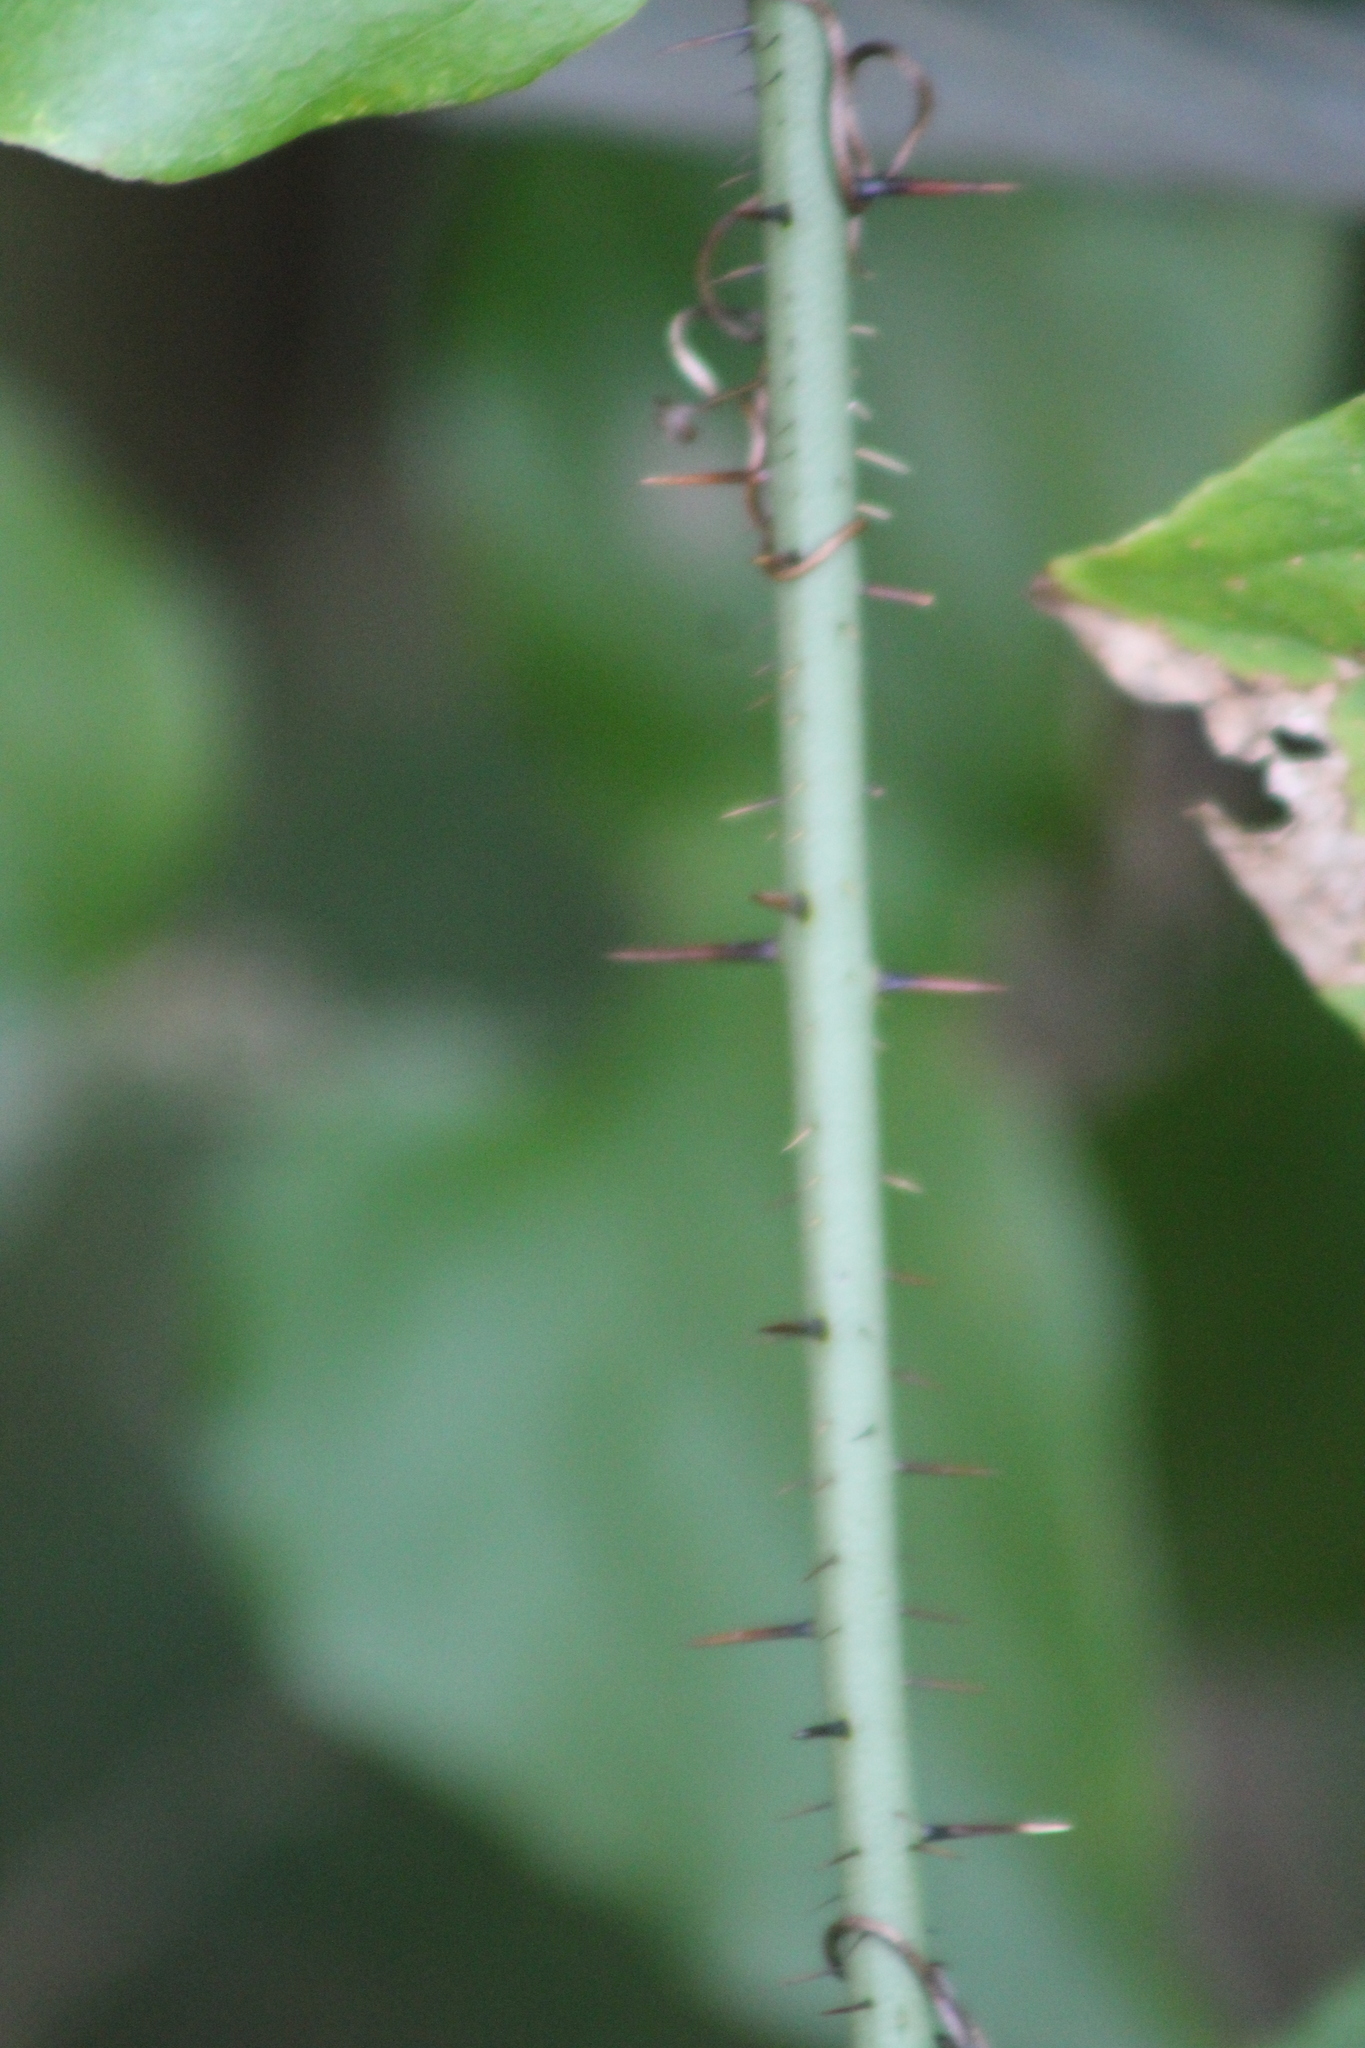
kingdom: Plantae
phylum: Tracheophyta
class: Liliopsida
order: Liliales
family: Smilacaceae
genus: Smilax
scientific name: Smilax tamnoides
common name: Hellfetter
